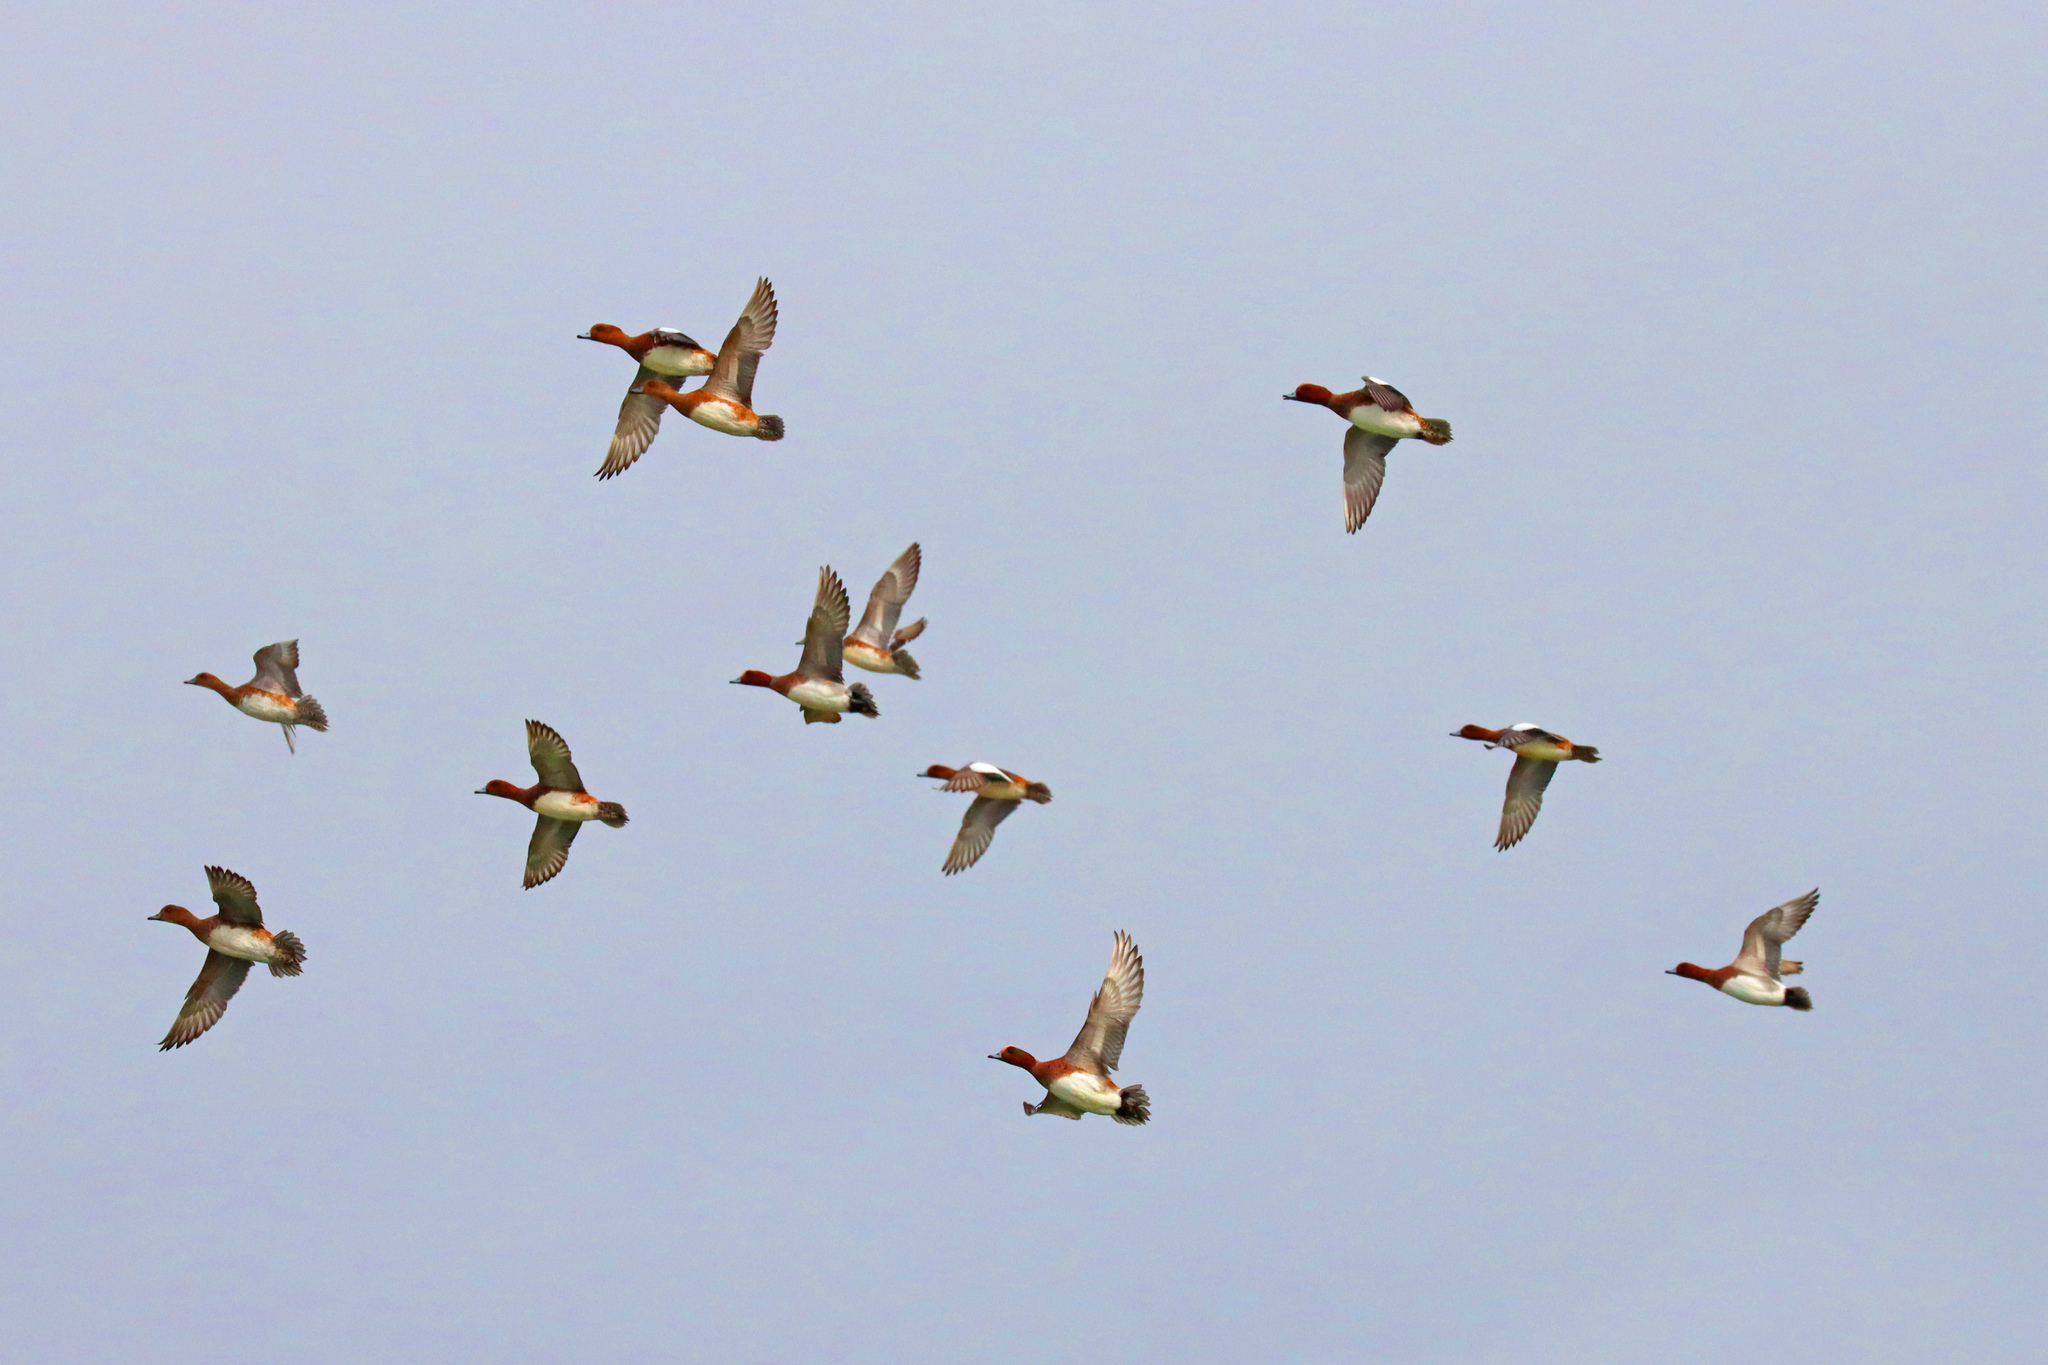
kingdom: Animalia
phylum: Chordata
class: Aves
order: Anseriformes
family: Anatidae
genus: Mareca
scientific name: Mareca penelope
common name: Eurasian wigeon
